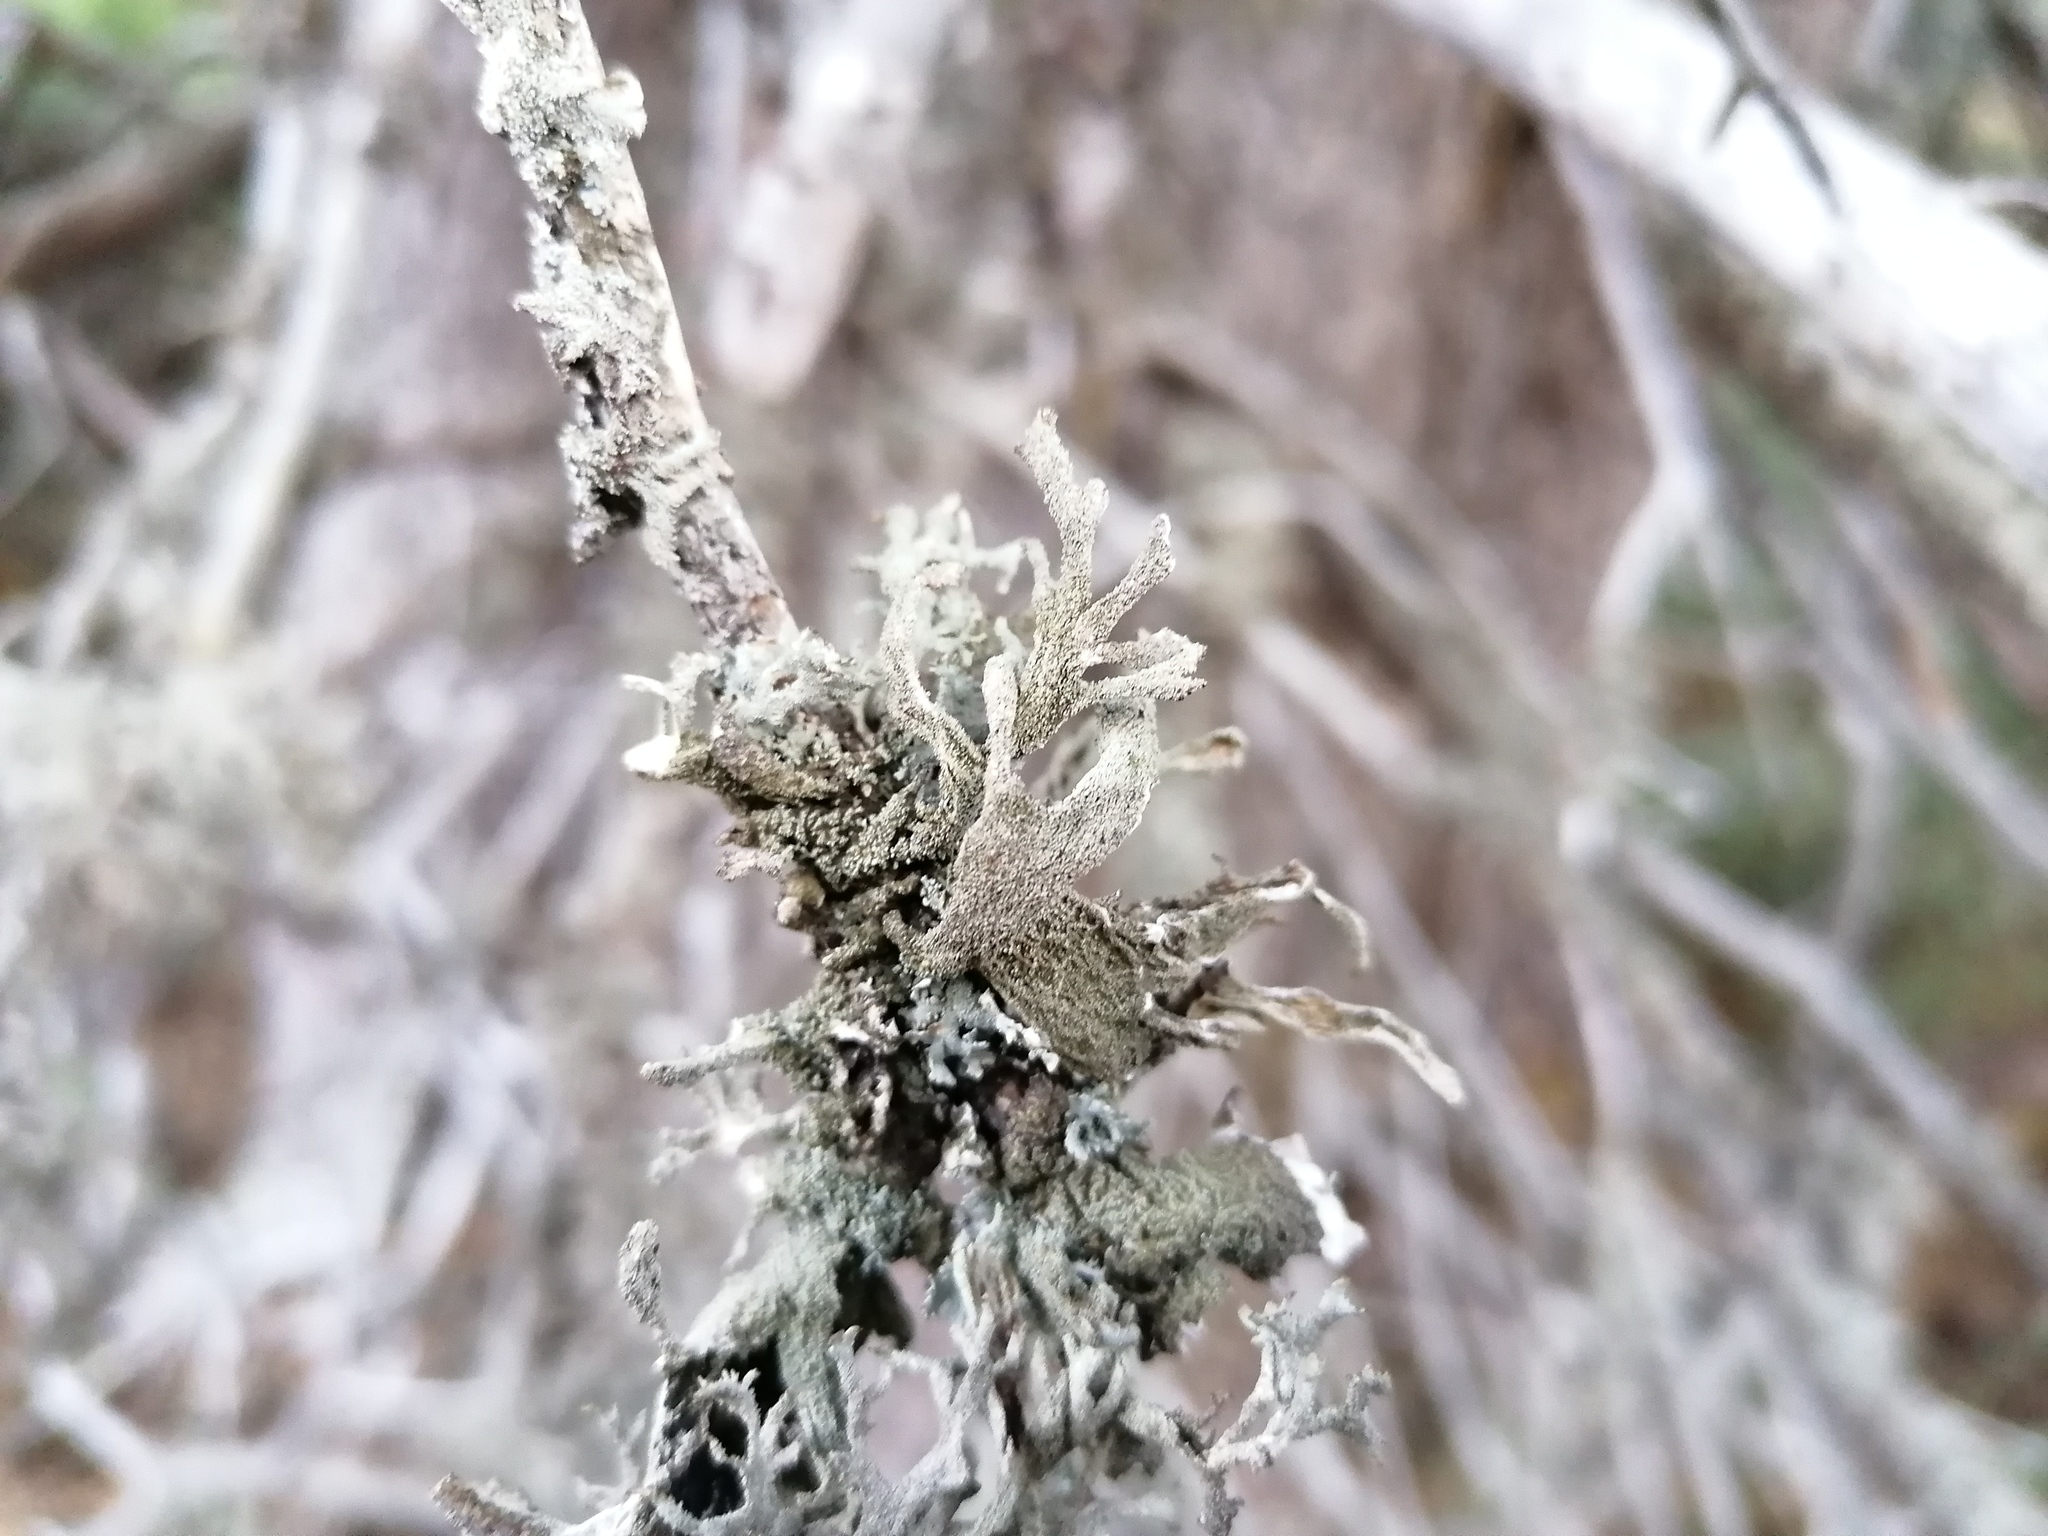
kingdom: Fungi
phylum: Ascomycota
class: Lecanoromycetes
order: Lecanorales
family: Parmeliaceae
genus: Pseudevernia
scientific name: Pseudevernia furfuracea
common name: Tree moss
